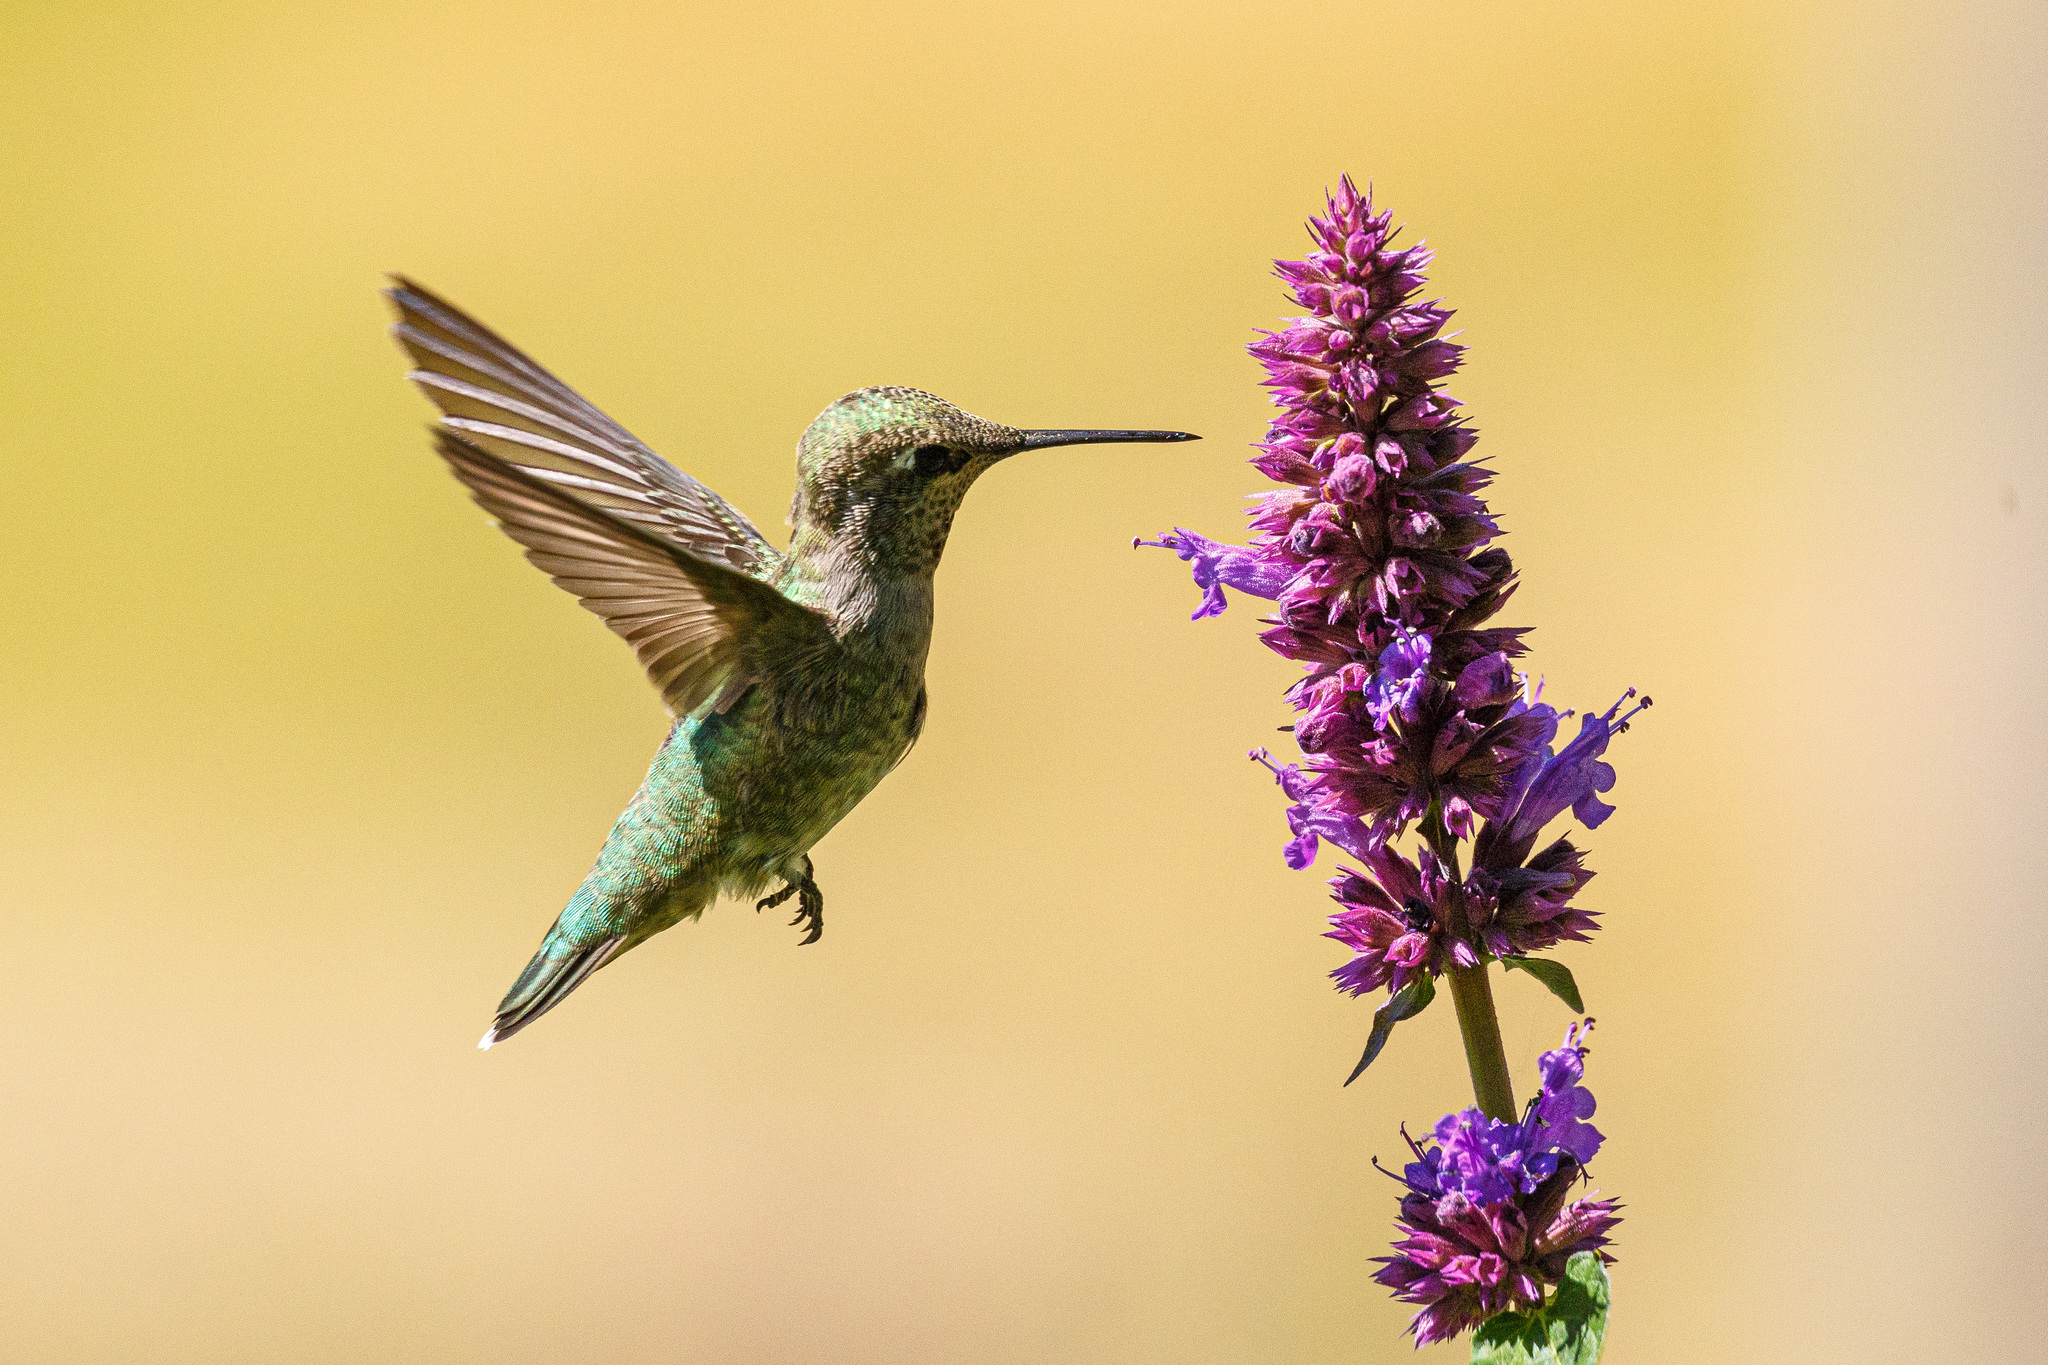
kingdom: Animalia
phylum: Chordata
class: Aves
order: Apodiformes
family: Trochilidae
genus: Calypte
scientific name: Calypte anna
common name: Anna's hummingbird
